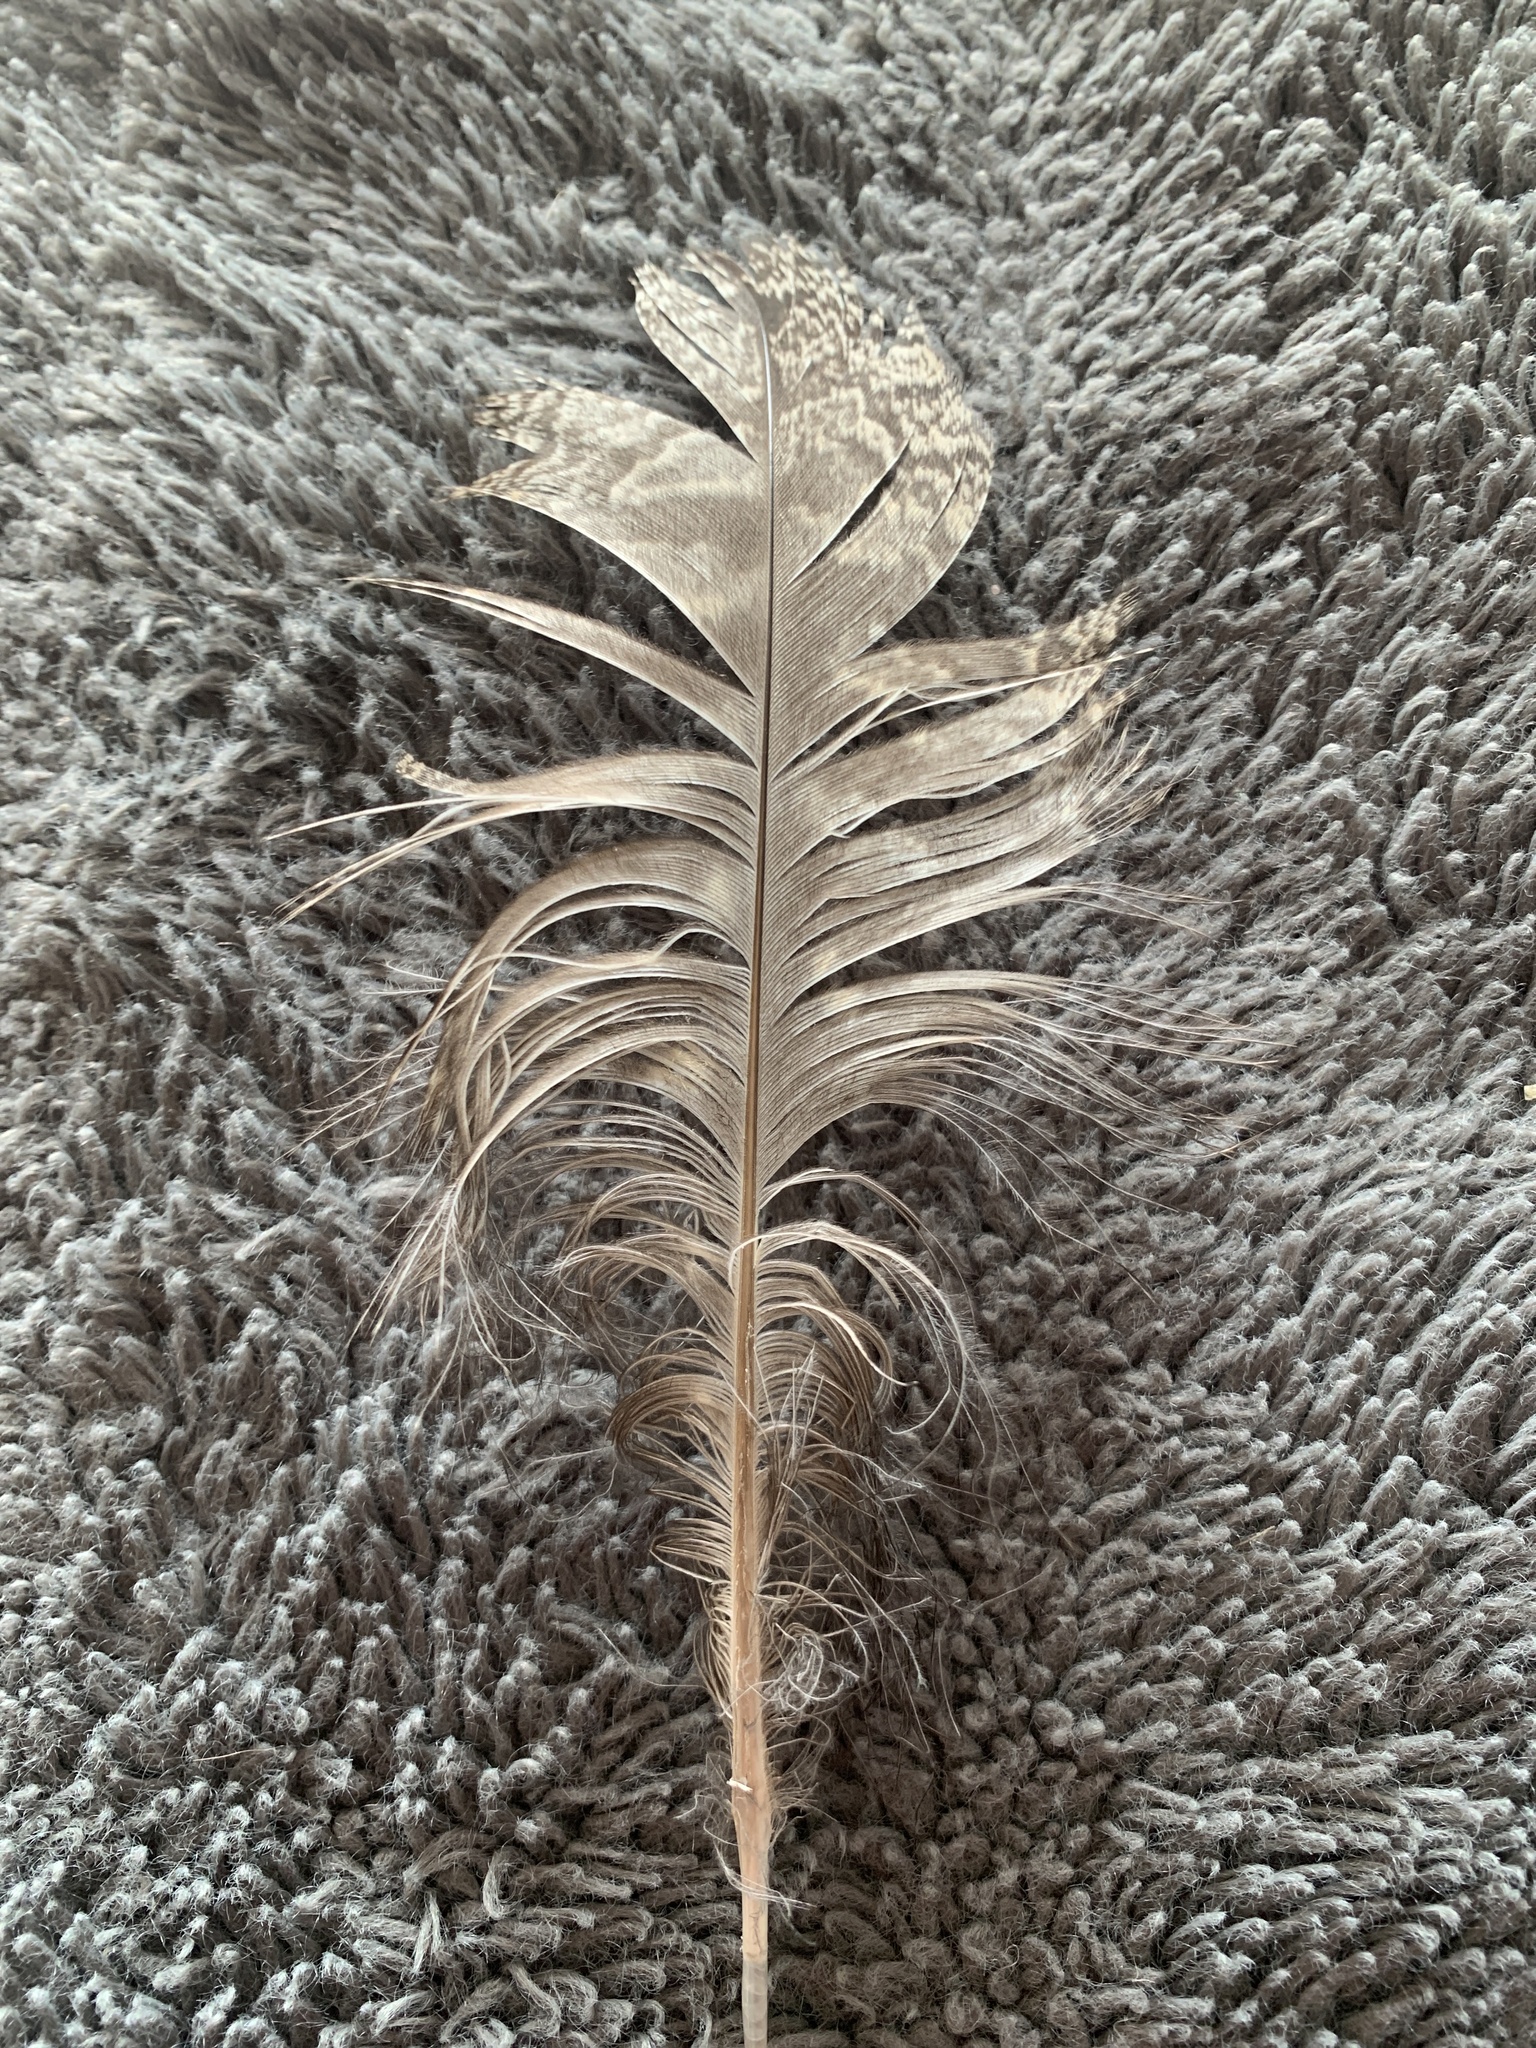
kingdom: Animalia
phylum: Chordata
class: Aves
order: Strigiformes
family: Strigidae
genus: Bubo
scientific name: Bubo virginianus
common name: Great horned owl
